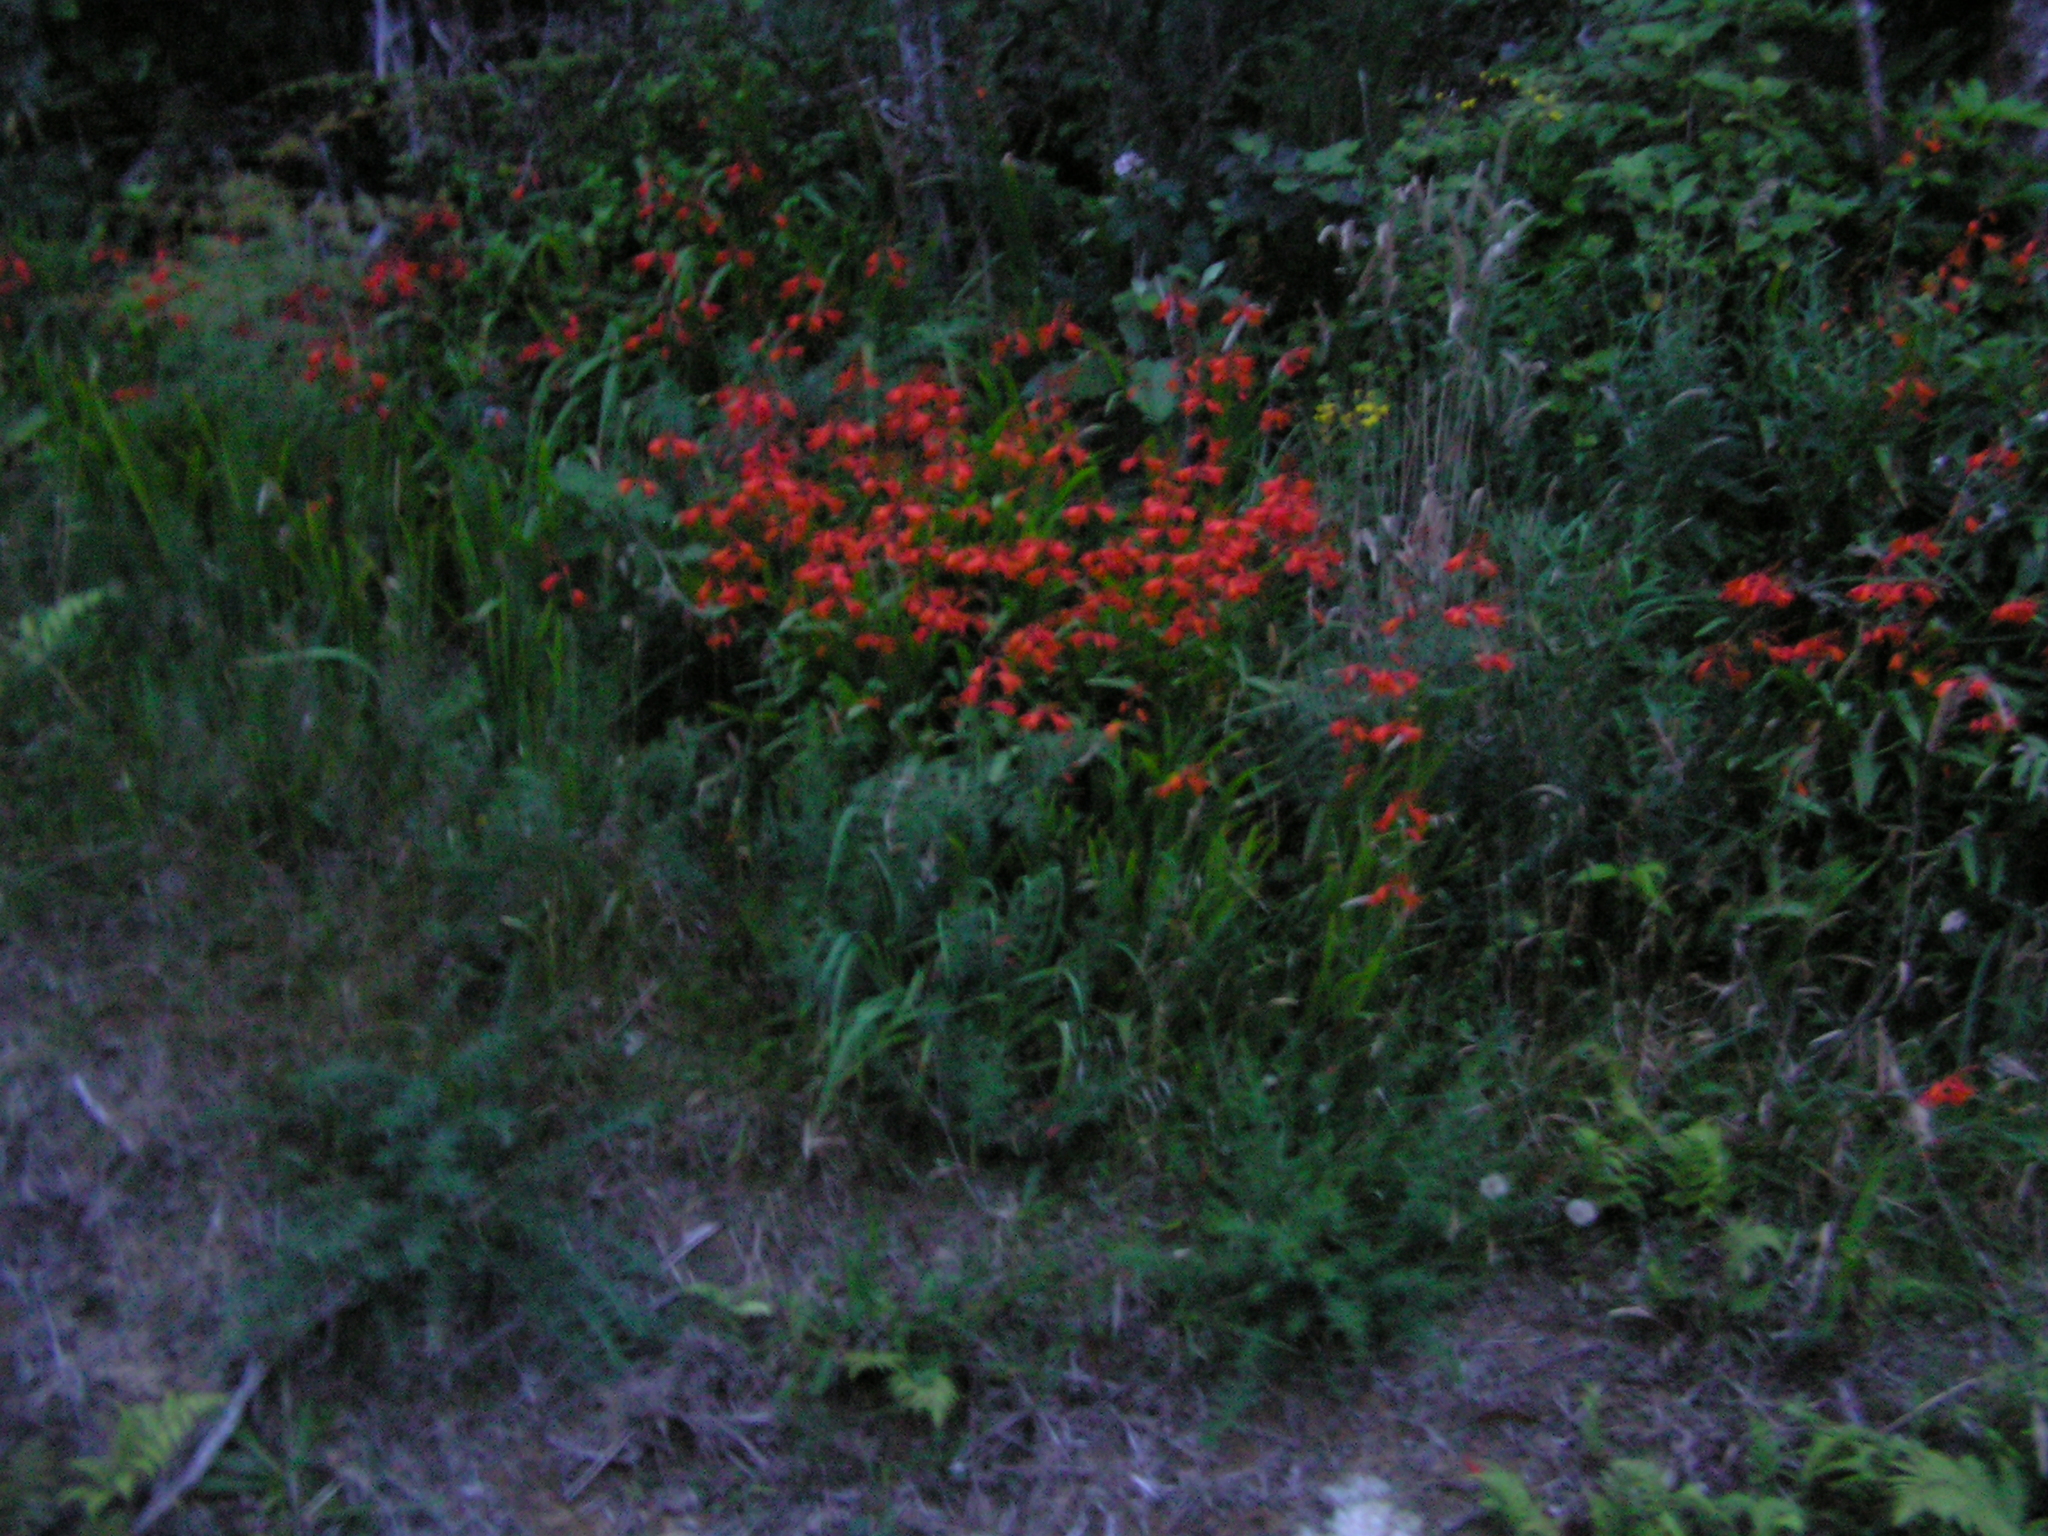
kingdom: Plantae
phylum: Tracheophyta
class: Liliopsida
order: Asparagales
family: Iridaceae
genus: Crocosmia
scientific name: Crocosmia crocosmiiflora
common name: Montbretia
